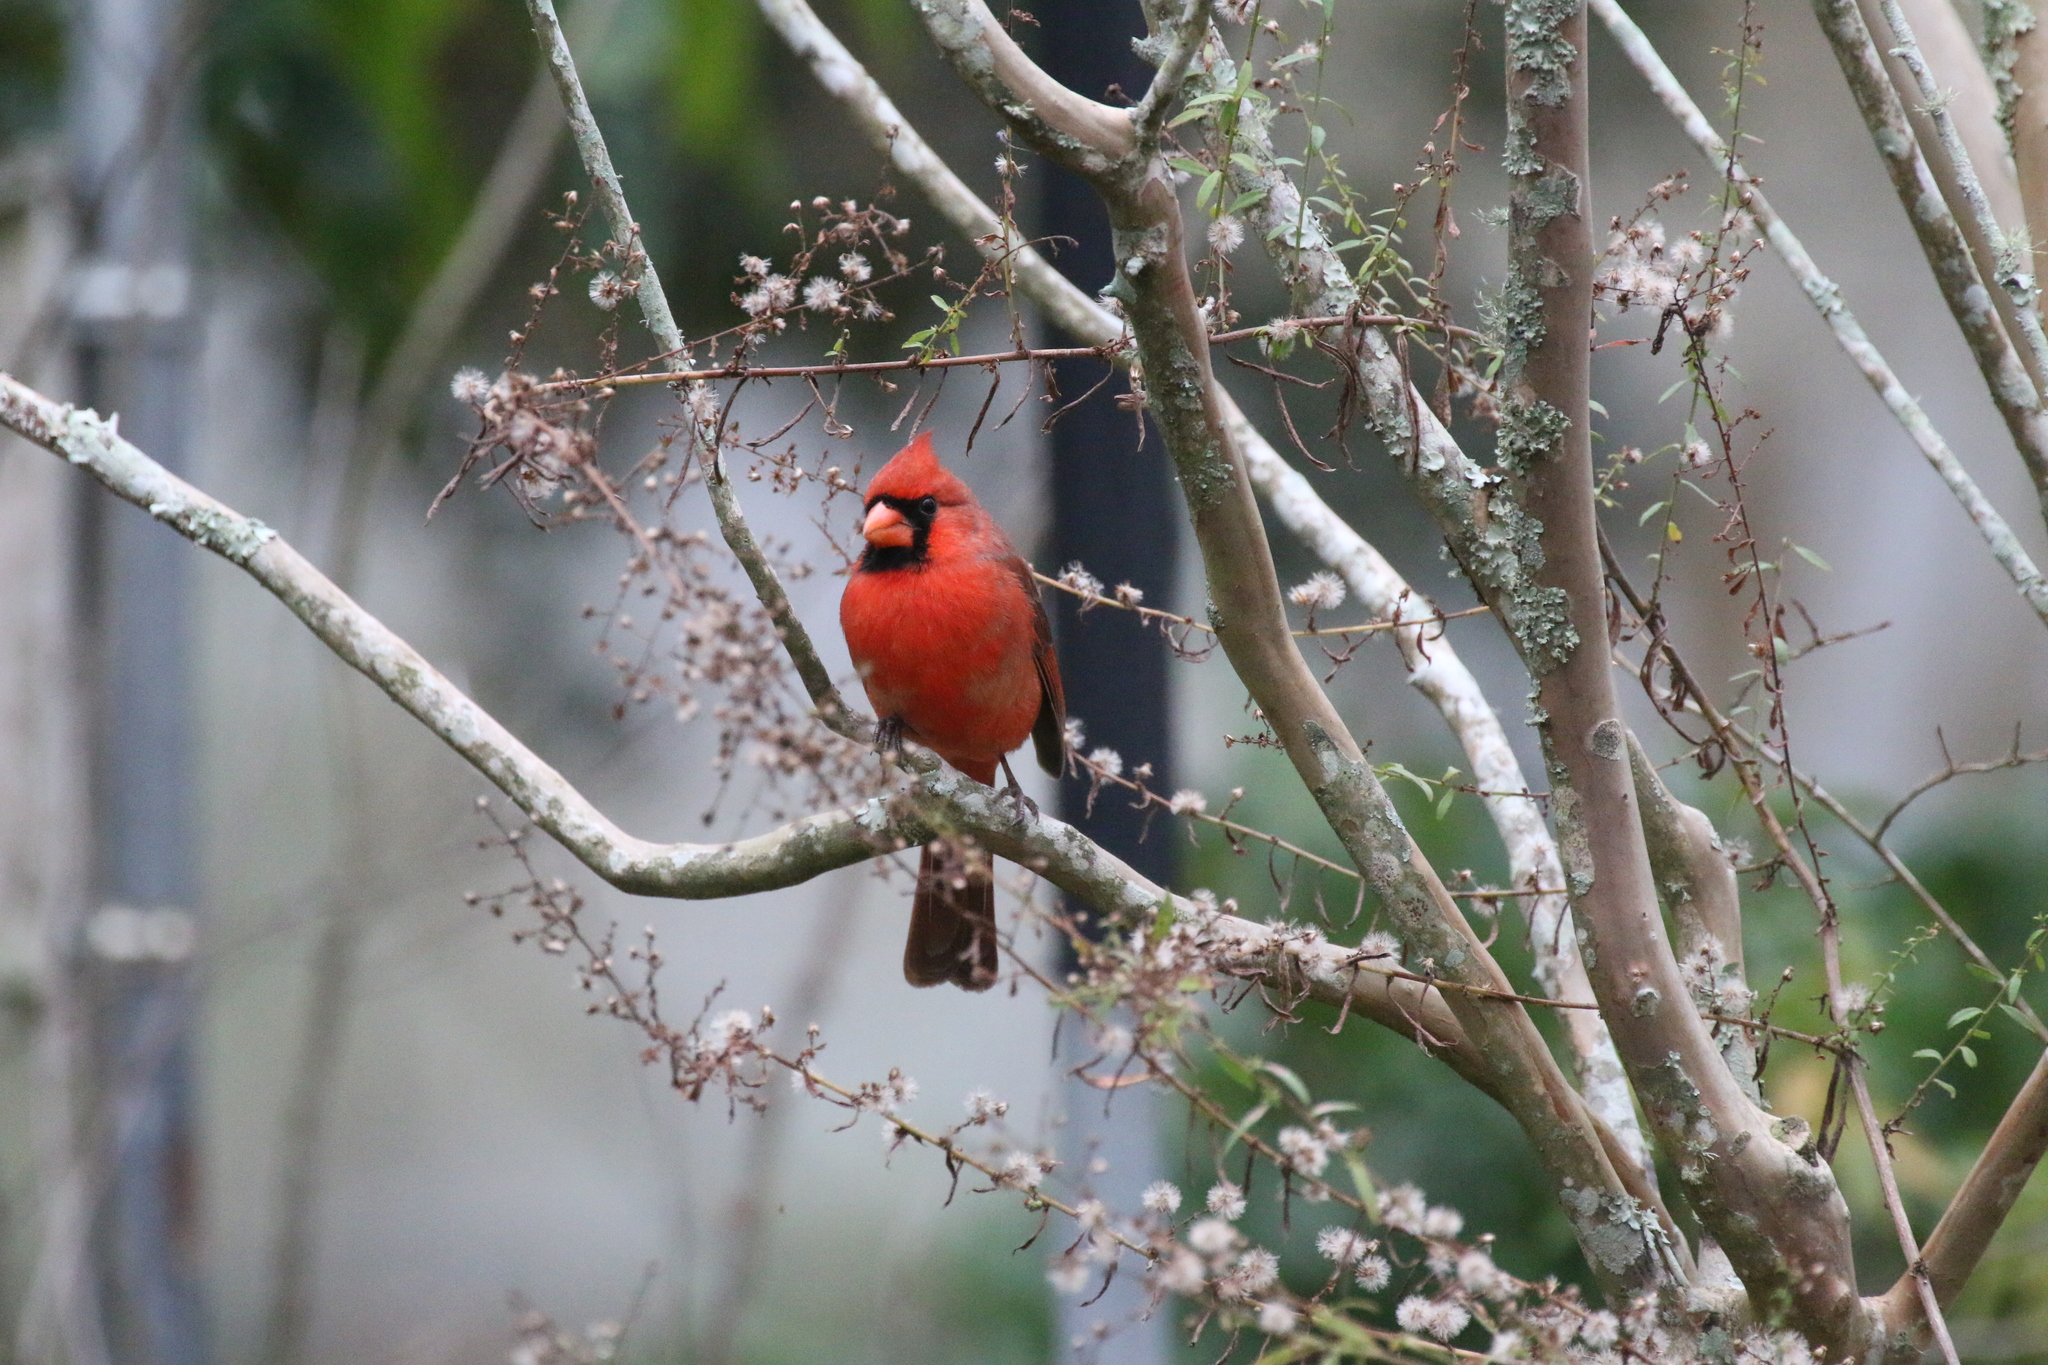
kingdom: Animalia
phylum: Chordata
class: Aves
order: Passeriformes
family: Cardinalidae
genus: Cardinalis
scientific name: Cardinalis cardinalis
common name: Northern cardinal
